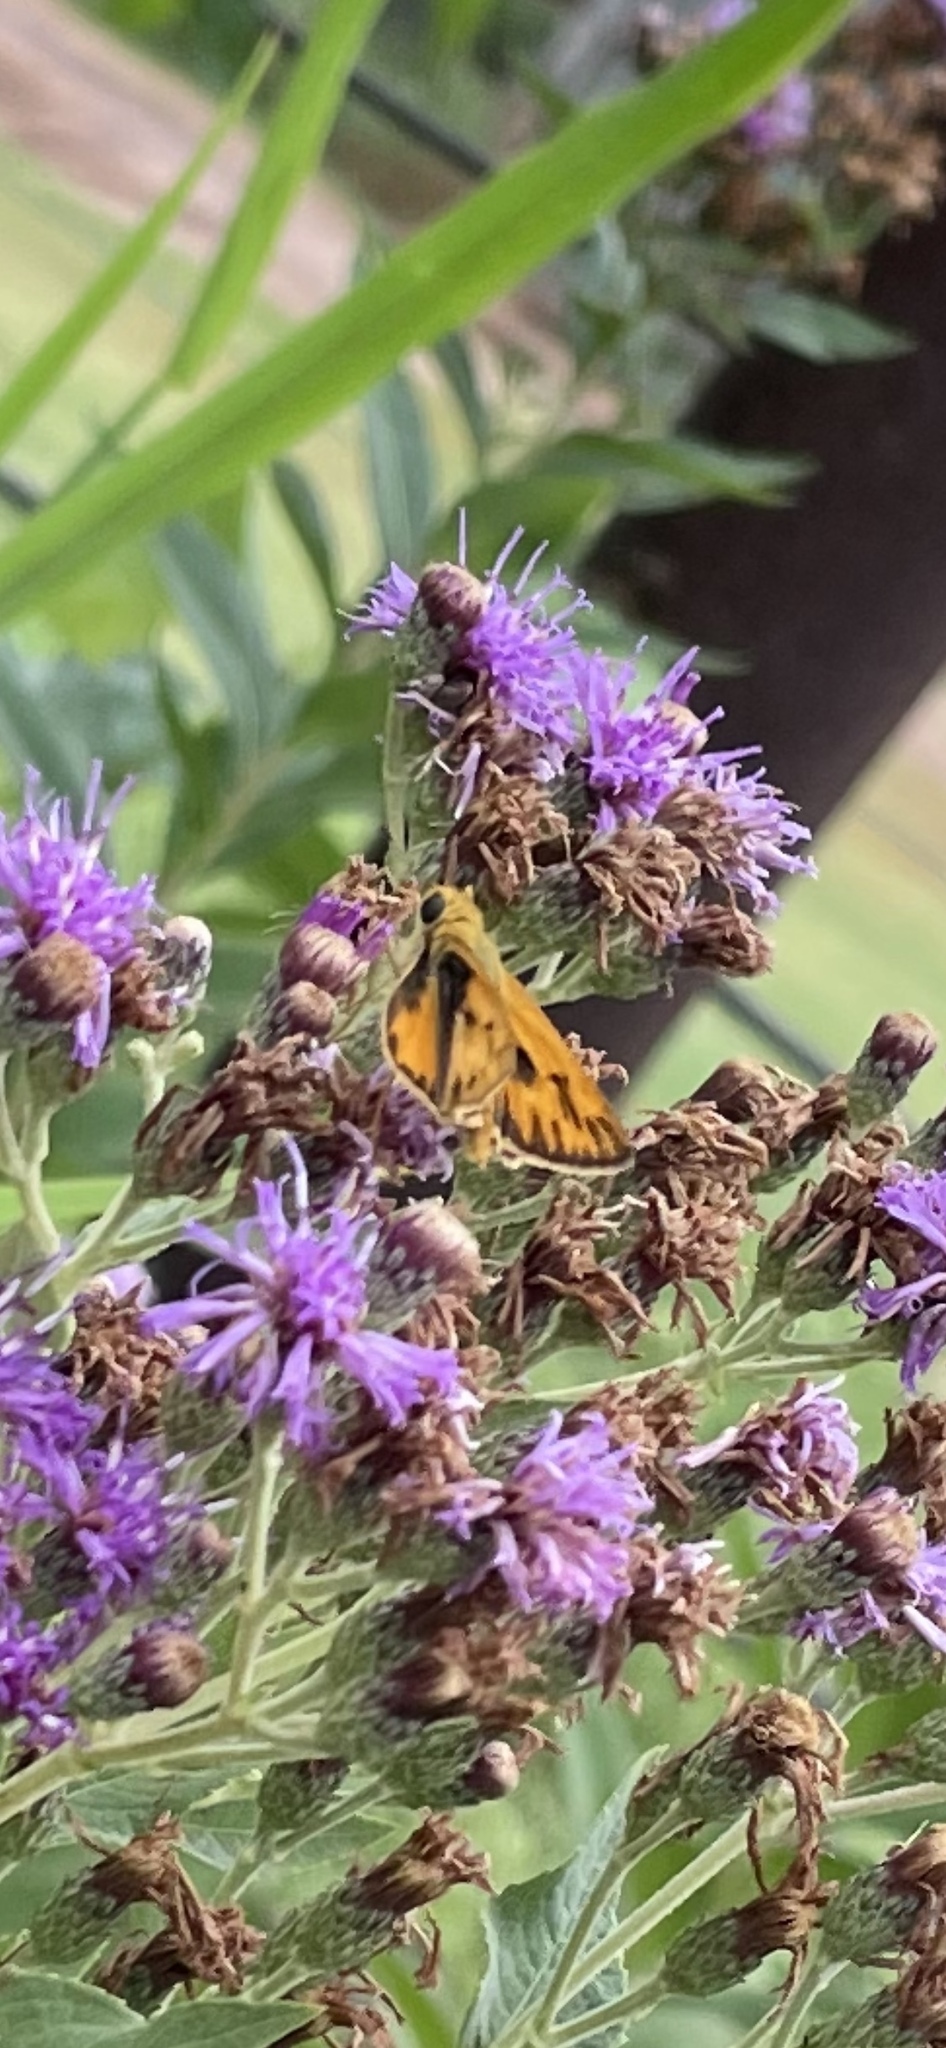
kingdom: Animalia
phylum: Arthropoda
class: Insecta
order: Lepidoptera
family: Hesperiidae
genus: Hylephila
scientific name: Hylephila phyleus
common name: Fiery skipper
